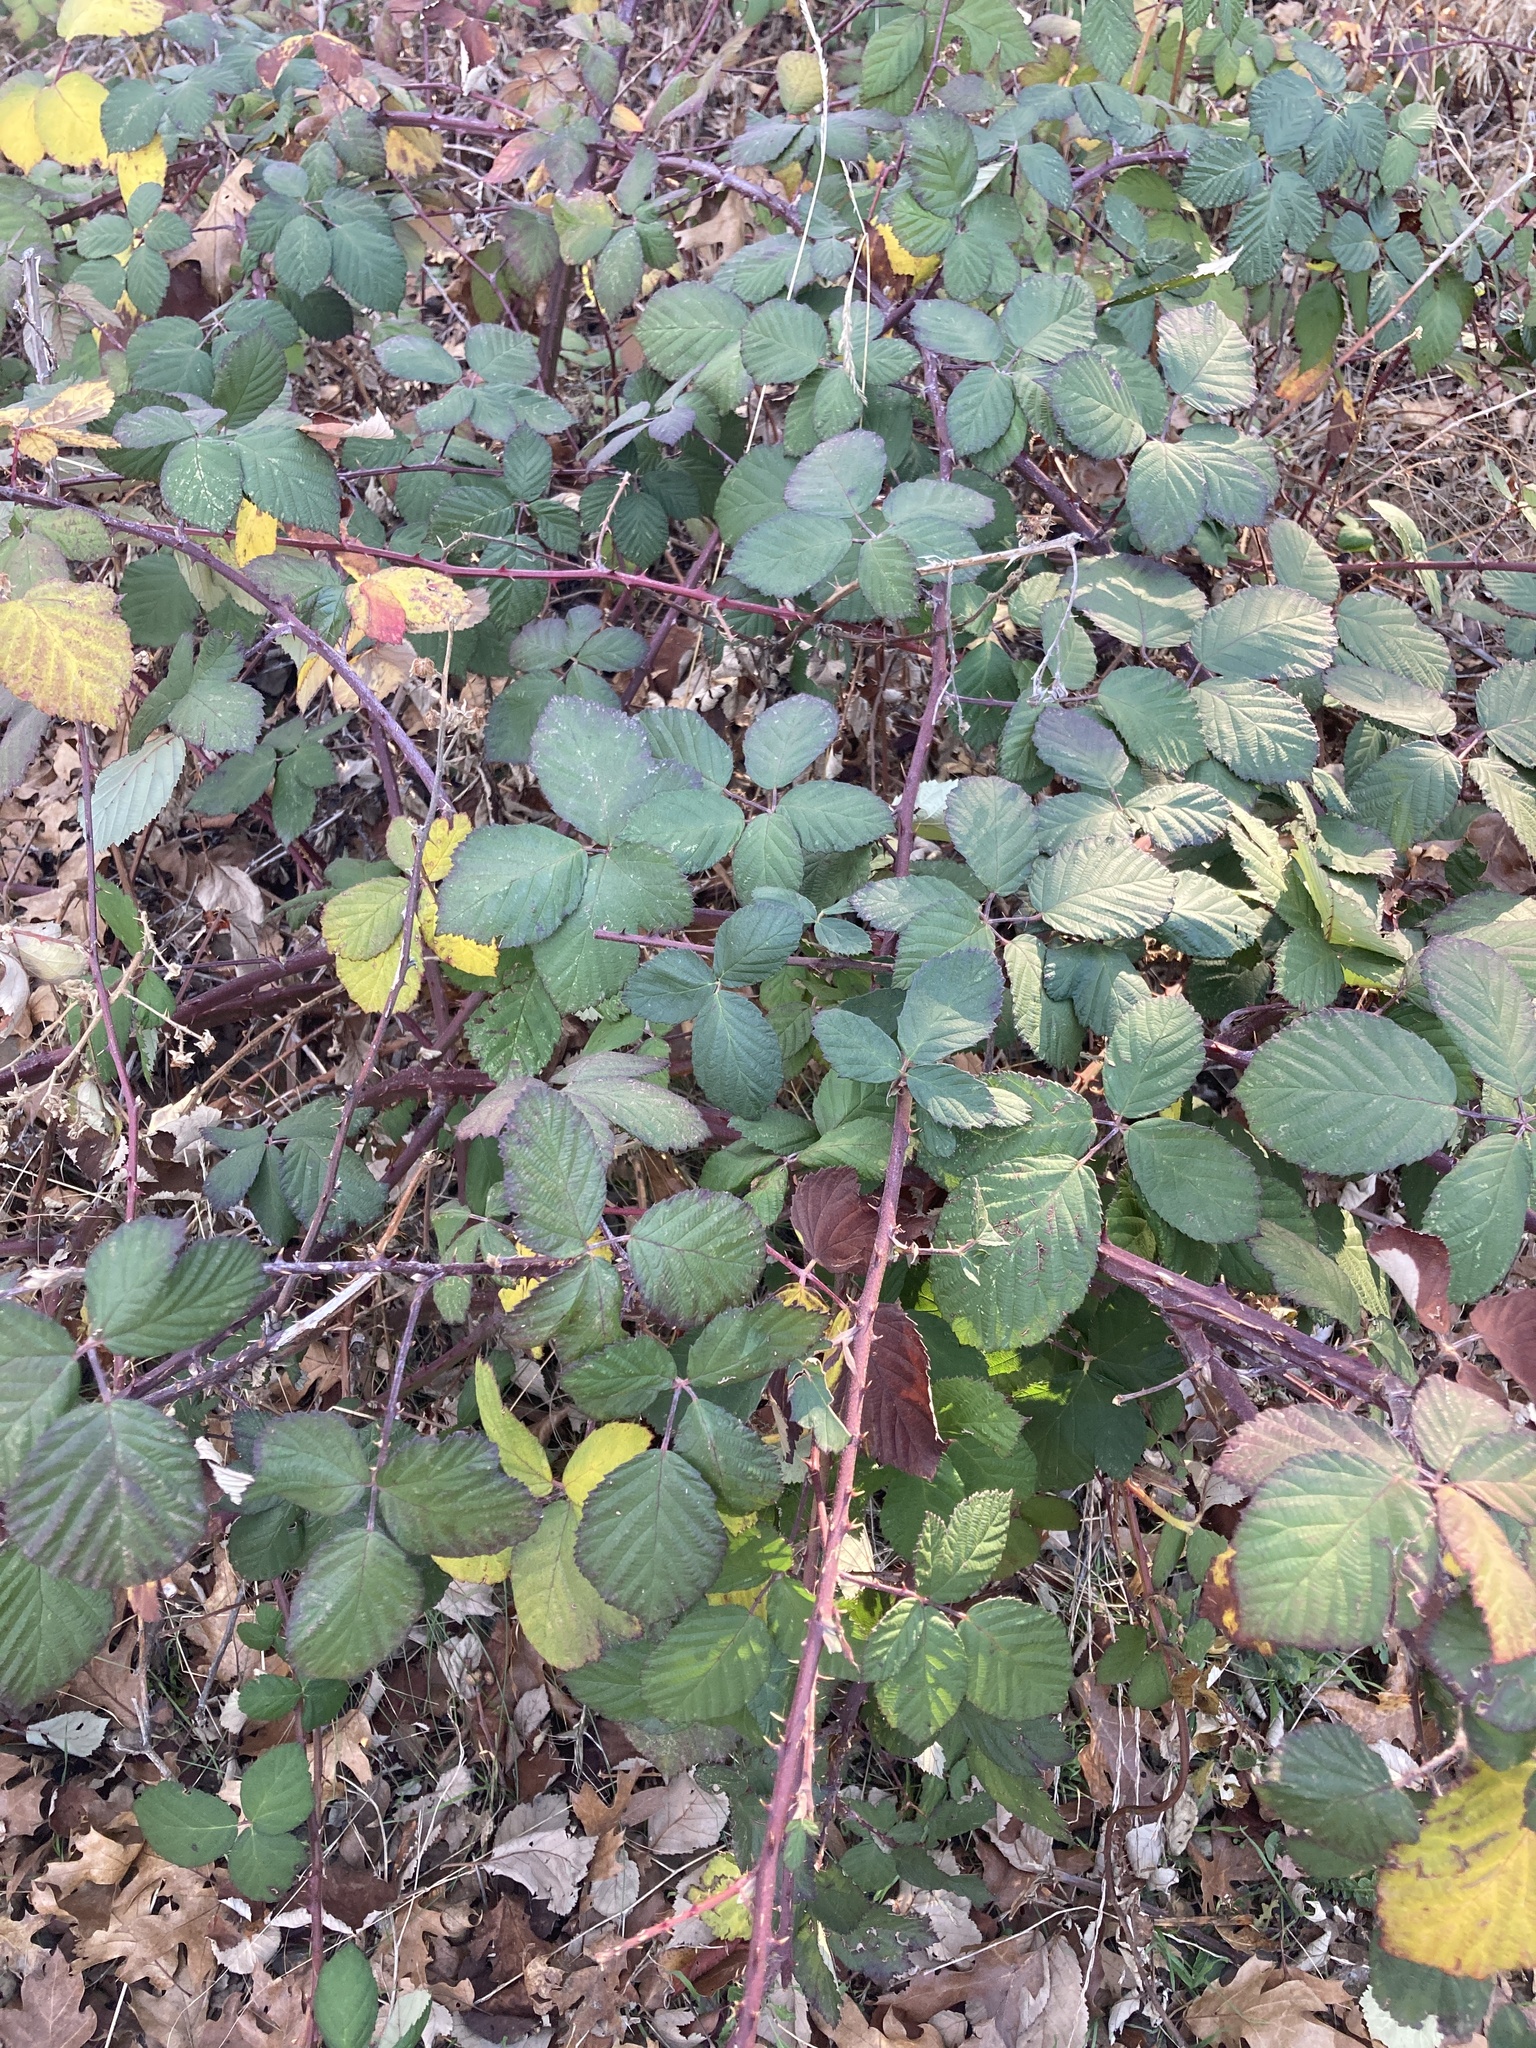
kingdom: Plantae
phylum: Tracheophyta
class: Magnoliopsida
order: Rosales
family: Rosaceae
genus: Rubus
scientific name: Rubus armeniacus
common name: Himalayan blackberry
